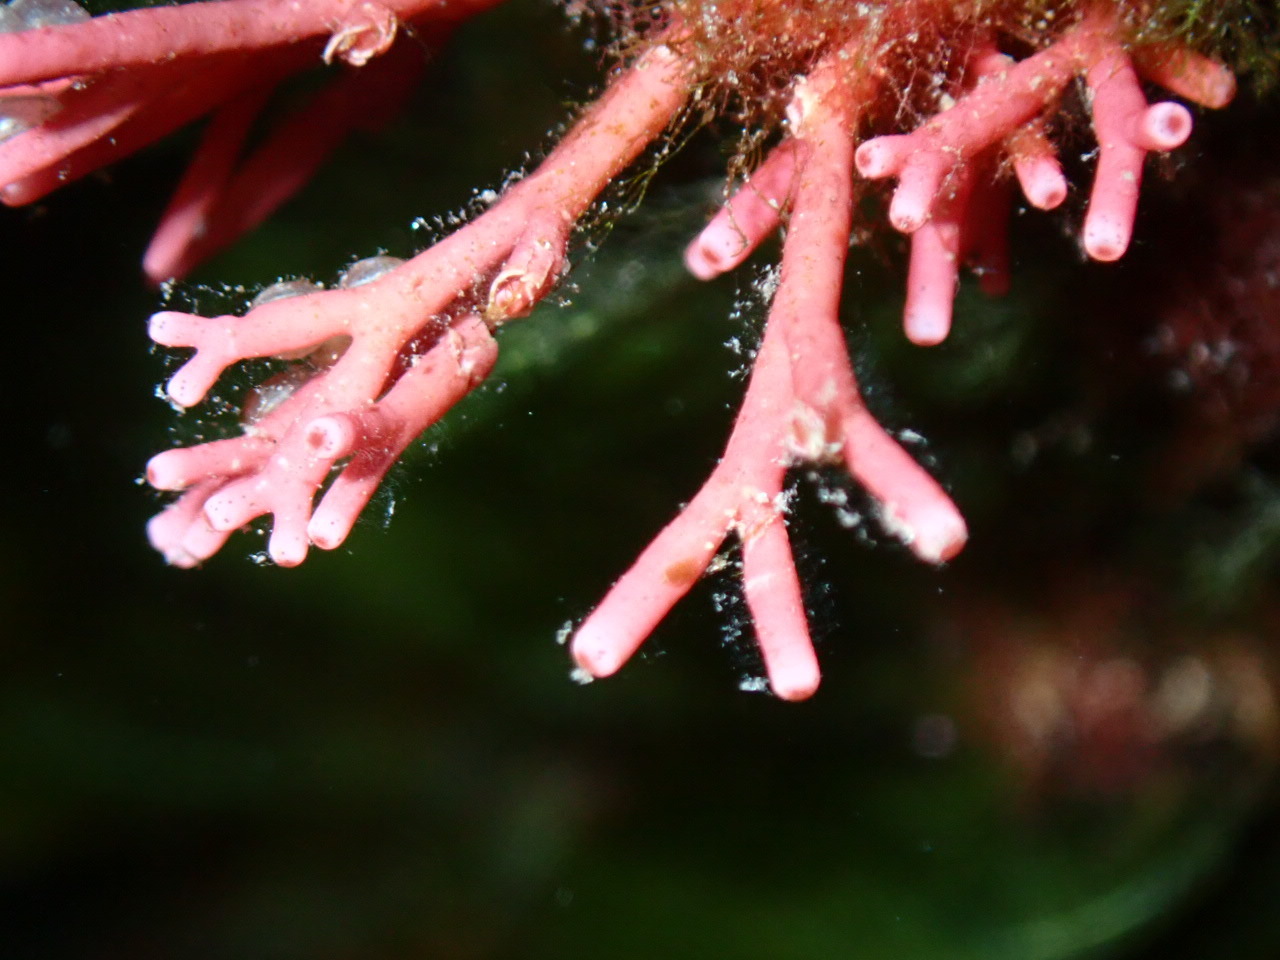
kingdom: Plantae
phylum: Rhodophyta
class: Florideophyceae
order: Nemaliales
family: Galaxauraceae
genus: Tricleocarpa
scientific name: Tricleocarpa fragilis
